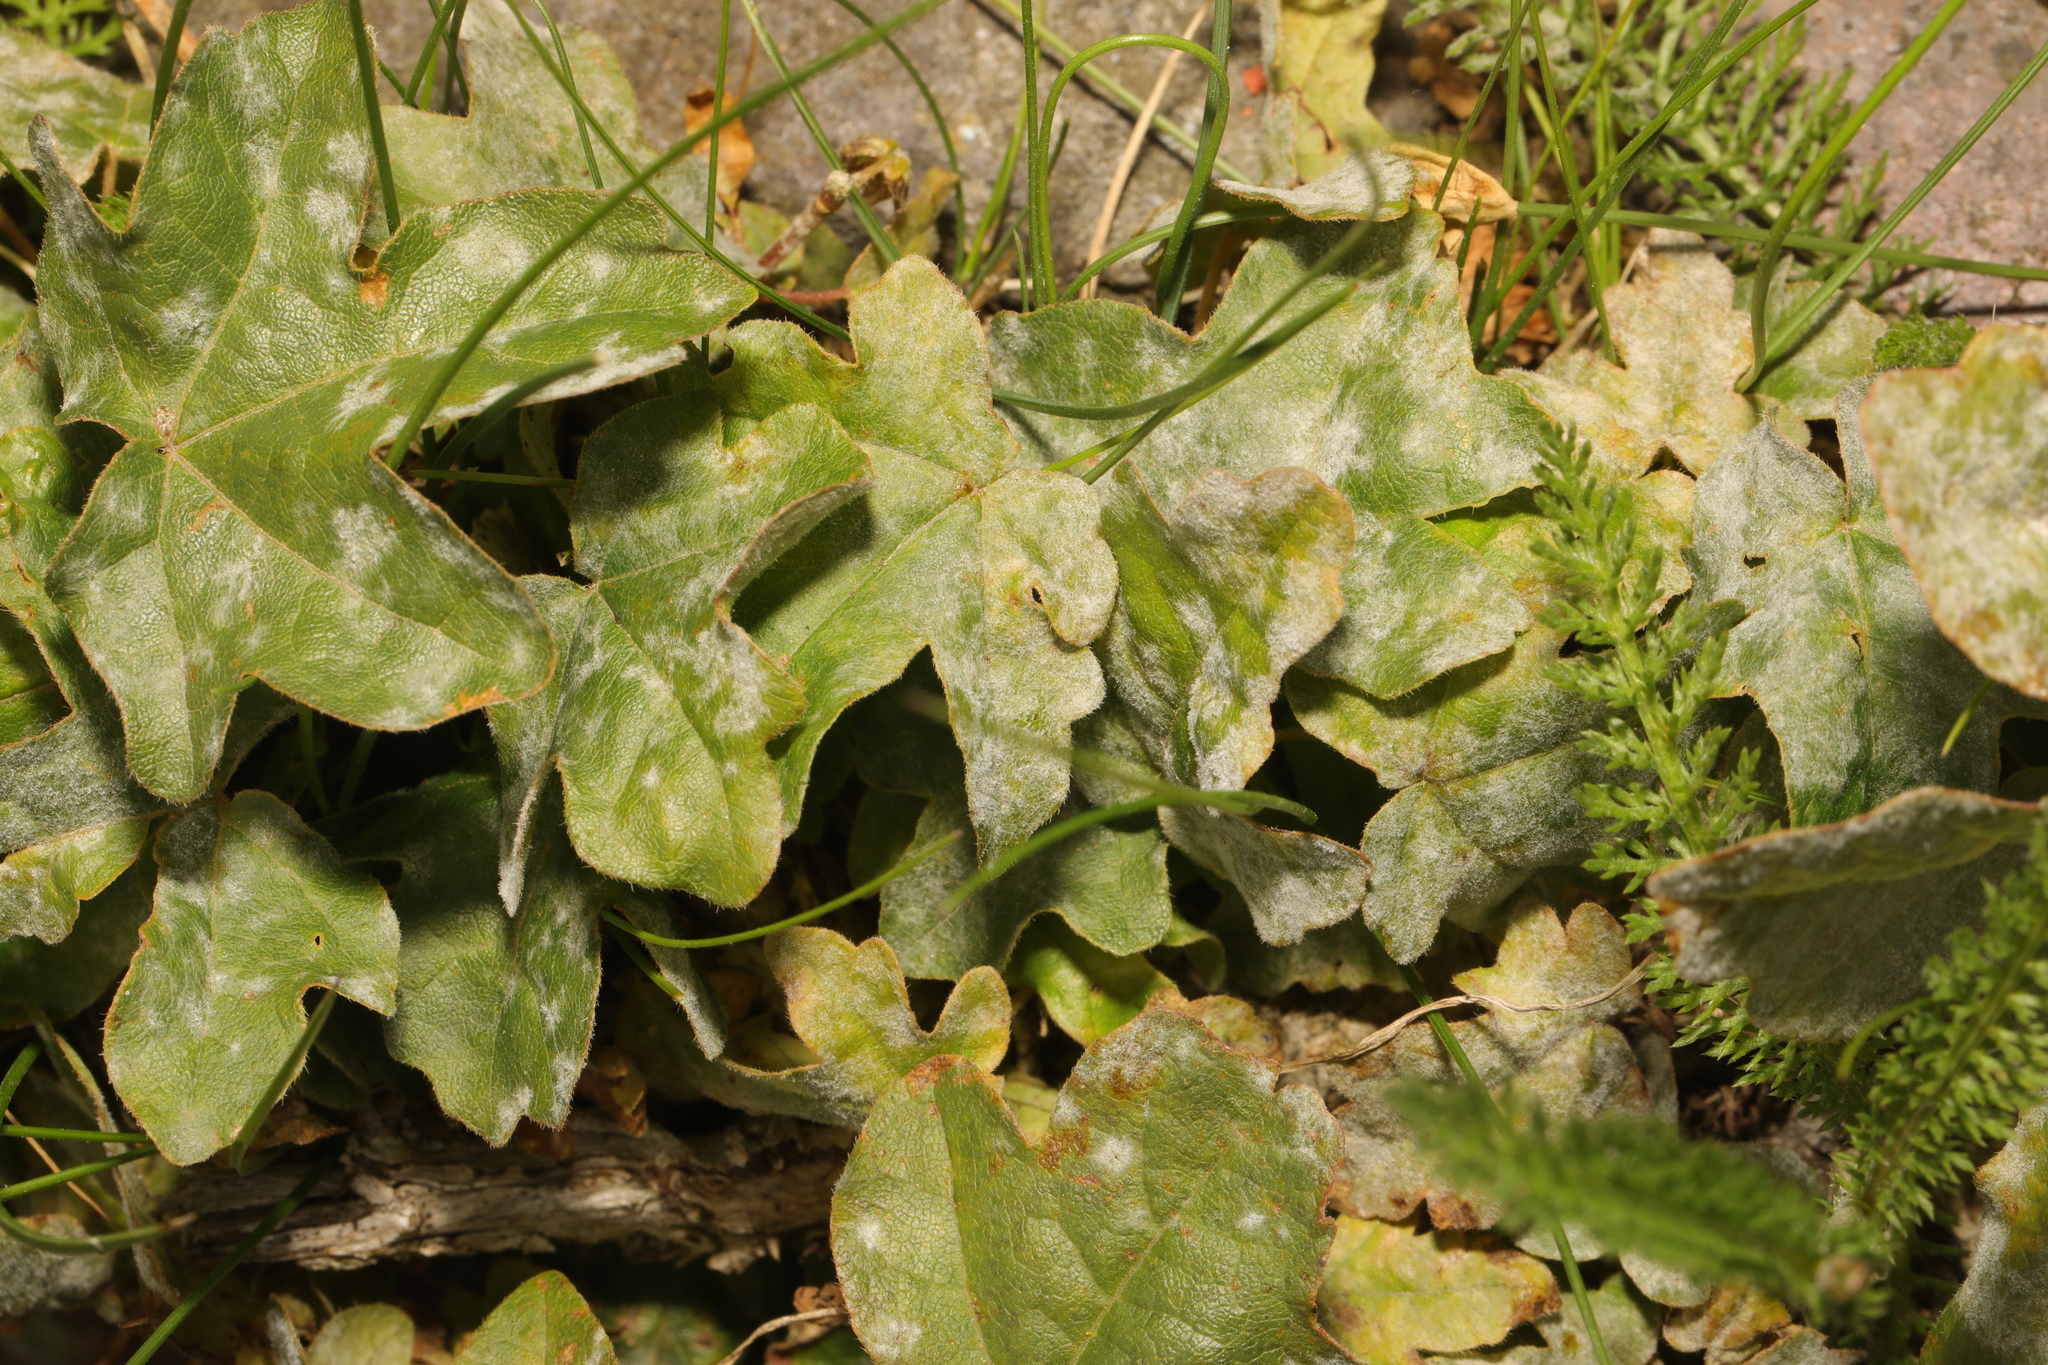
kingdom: Plantae
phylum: Tracheophyta
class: Magnoliopsida
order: Sapindales
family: Sapindaceae
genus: Acer
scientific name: Acer campestre
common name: Field maple
